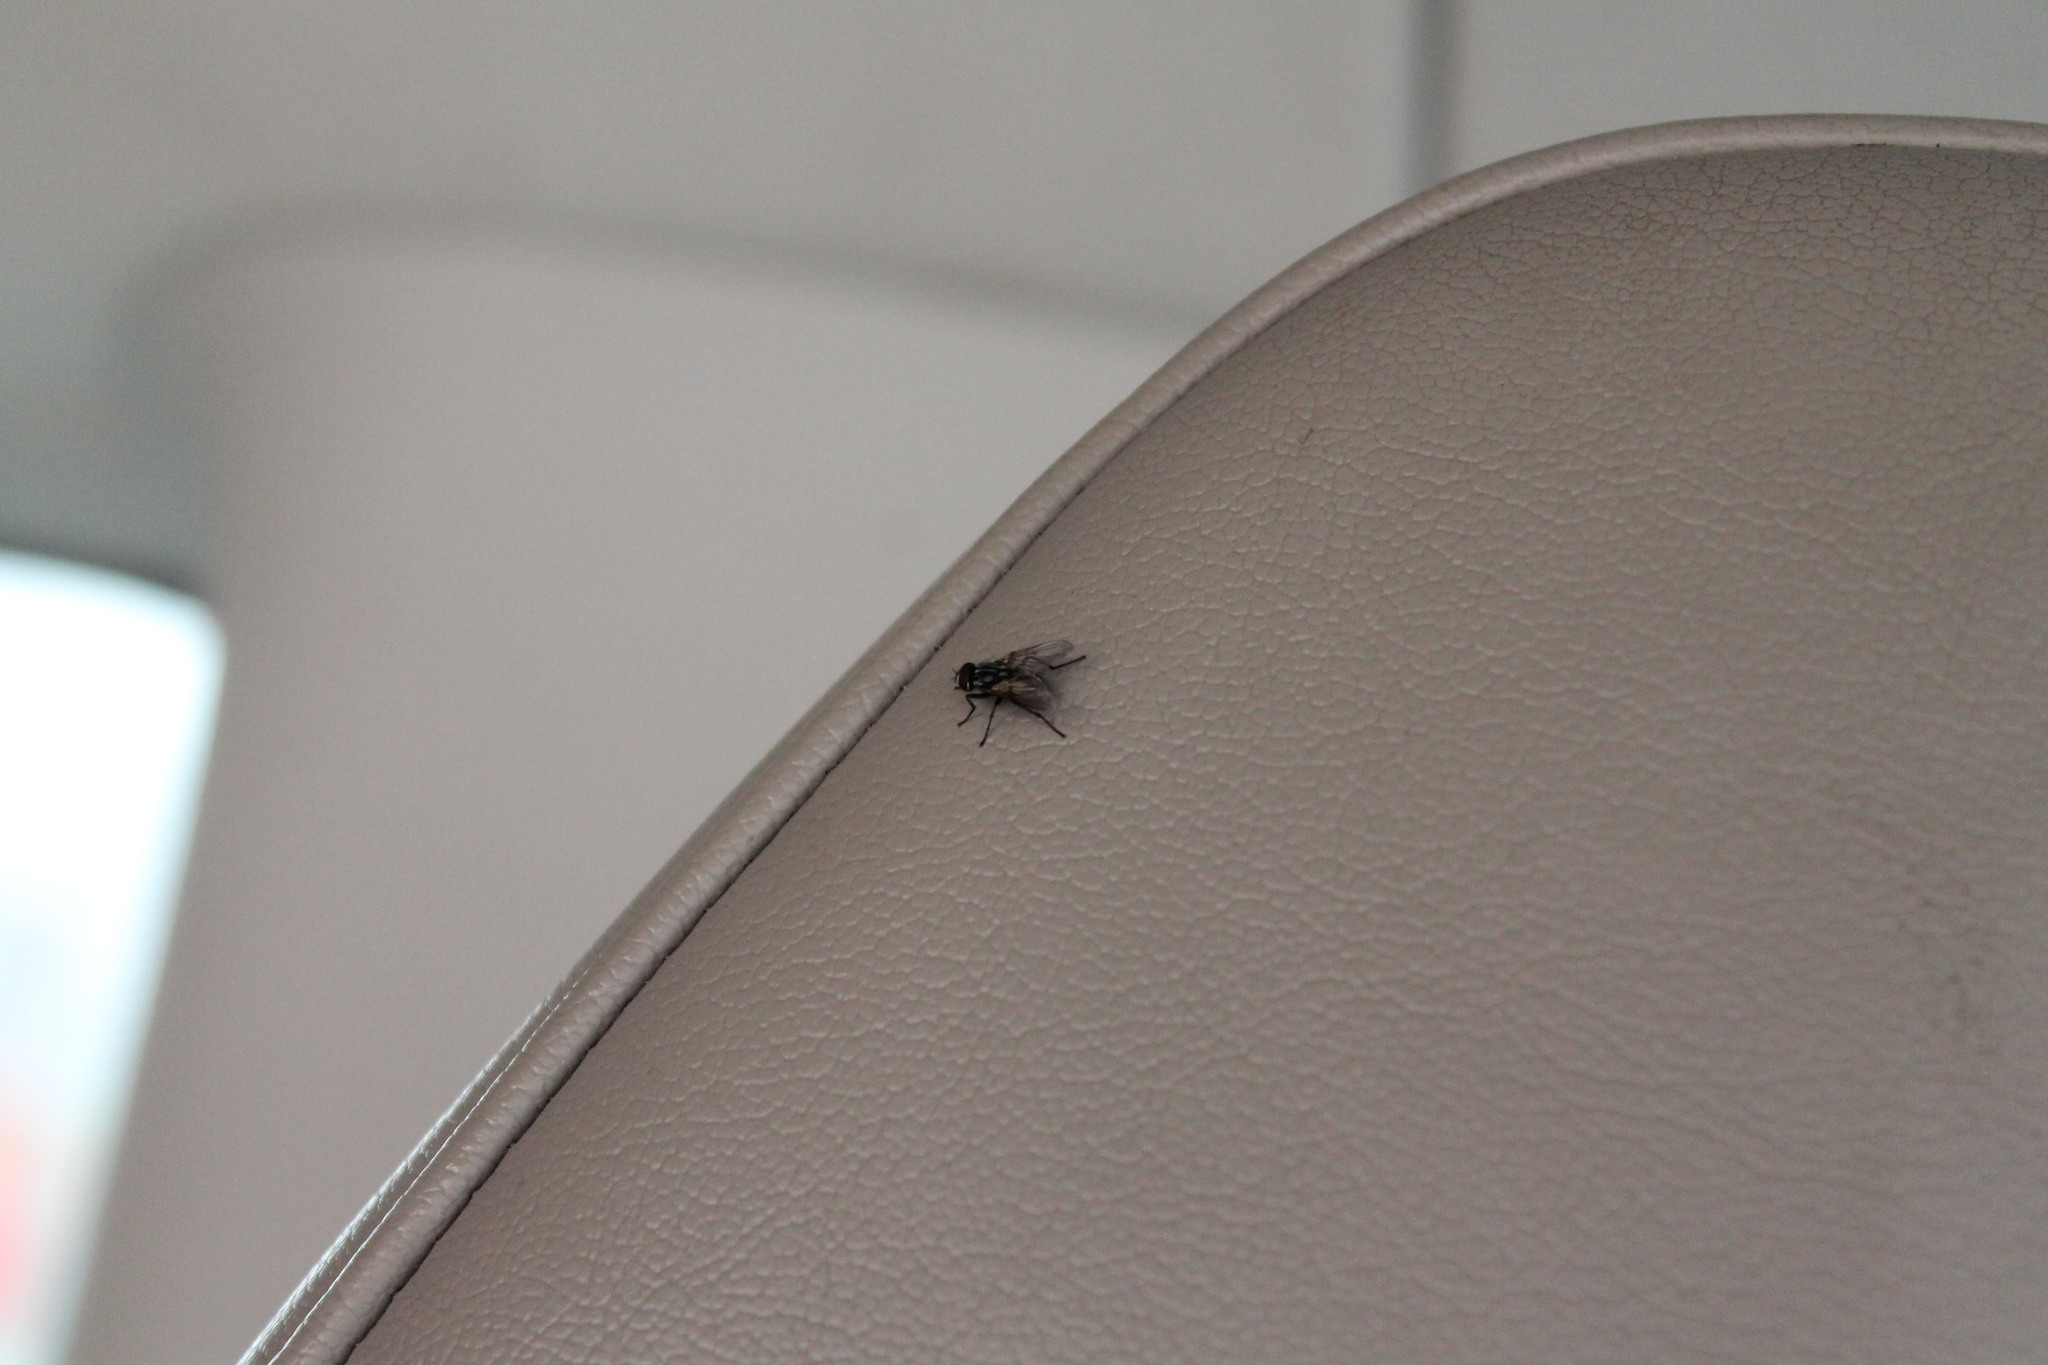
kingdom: Animalia
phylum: Arthropoda
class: Insecta
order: Diptera
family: Muscidae
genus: Musca
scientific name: Musca domestica
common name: House fly
